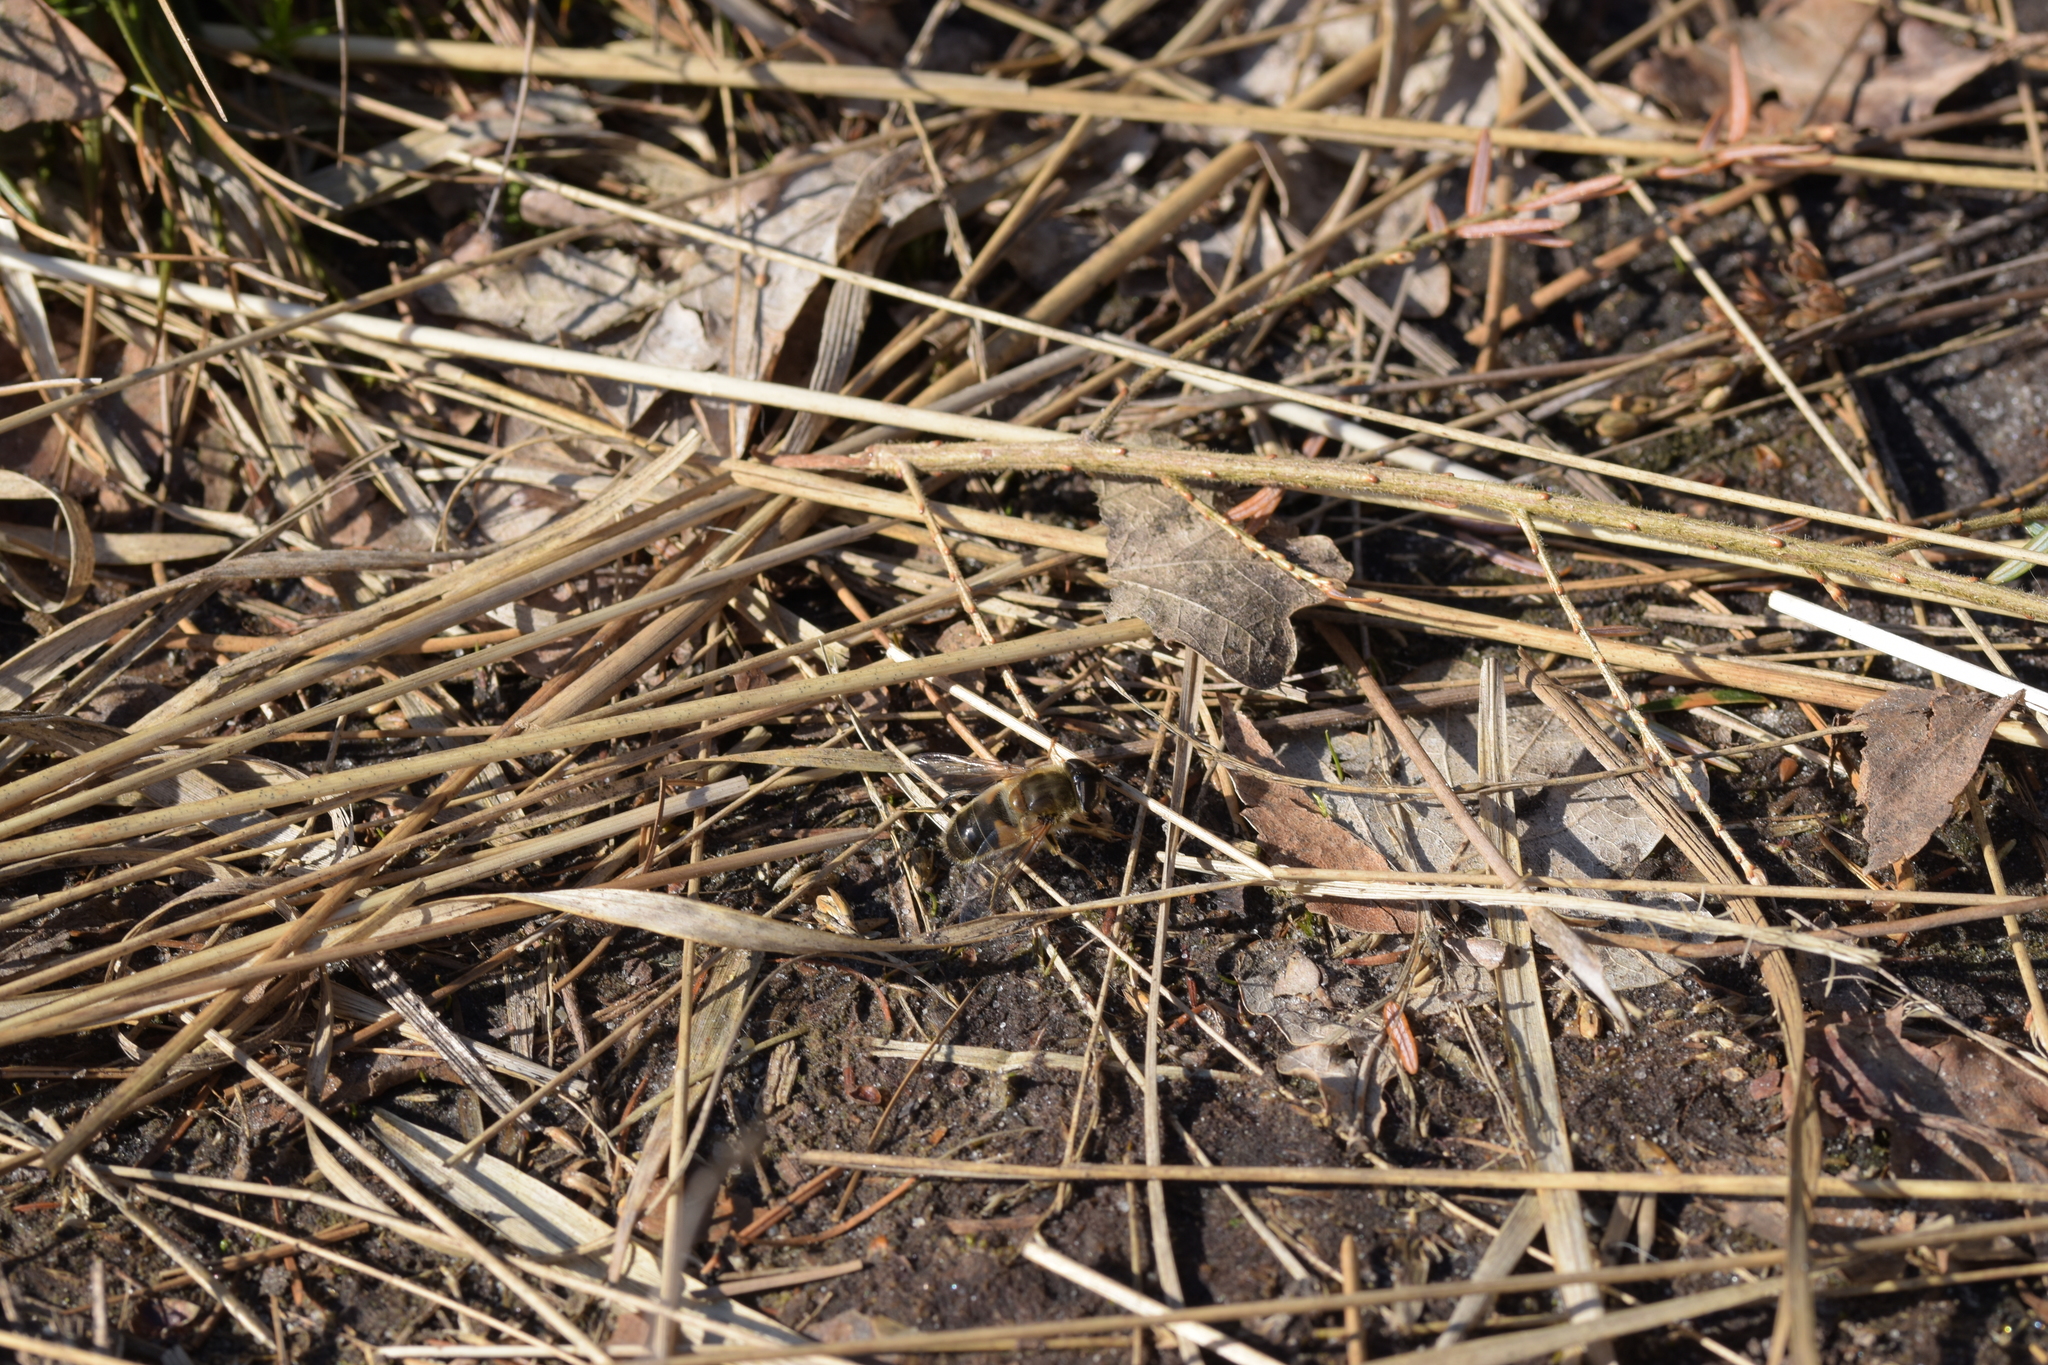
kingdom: Animalia
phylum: Arthropoda
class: Insecta
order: Diptera
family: Syrphidae
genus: Eristalis
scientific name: Eristalis pertinax
